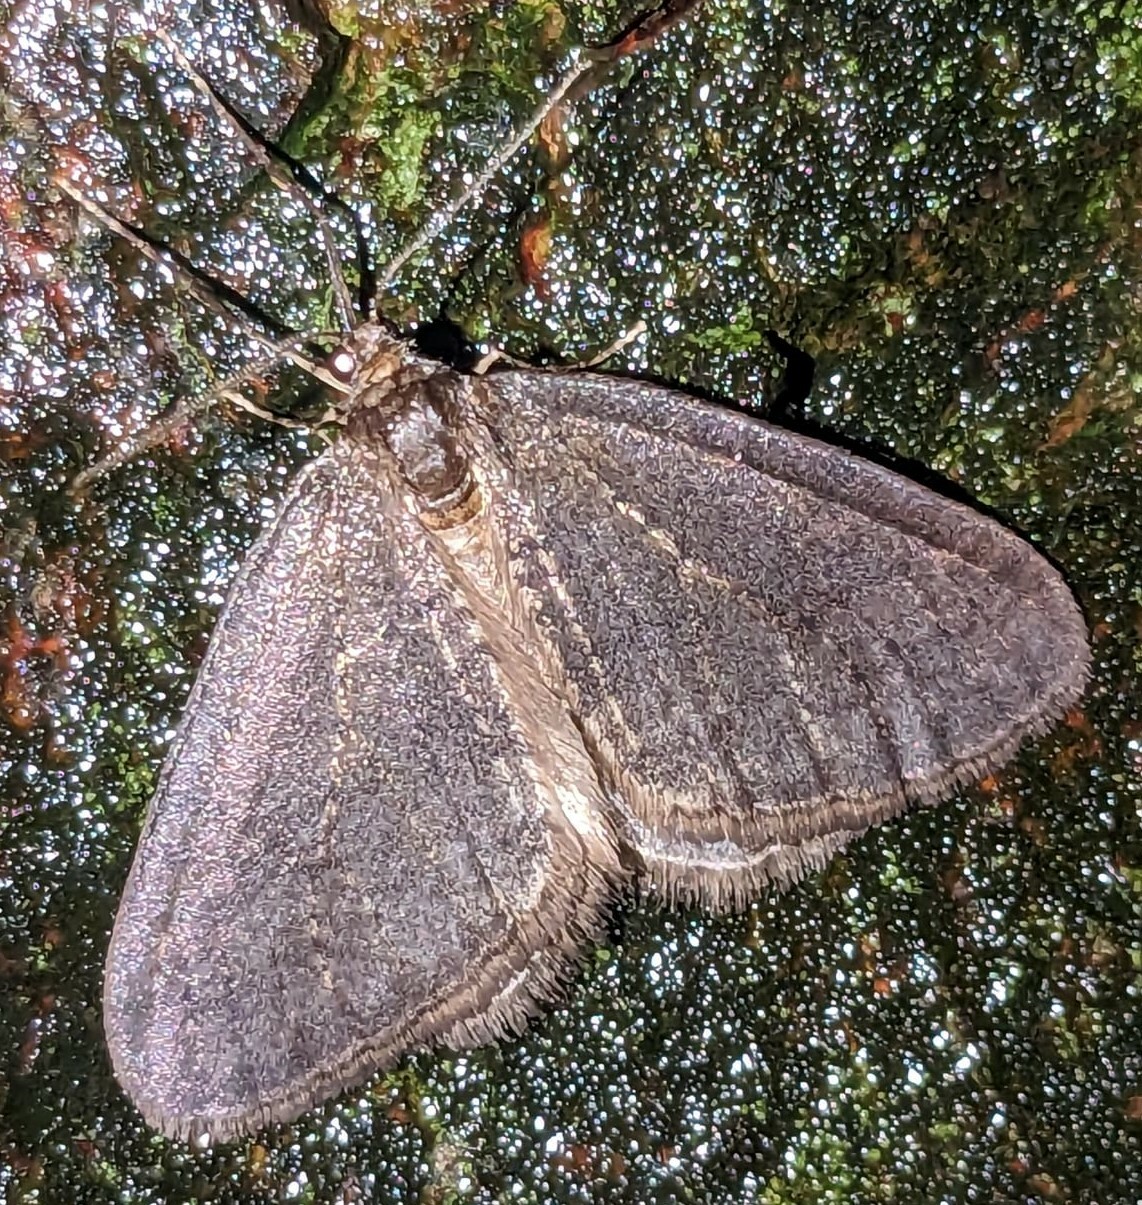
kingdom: Animalia
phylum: Arthropoda
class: Insecta
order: Lepidoptera
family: Geometridae
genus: Operophtera
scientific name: Operophtera brumata
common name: Winter moth
